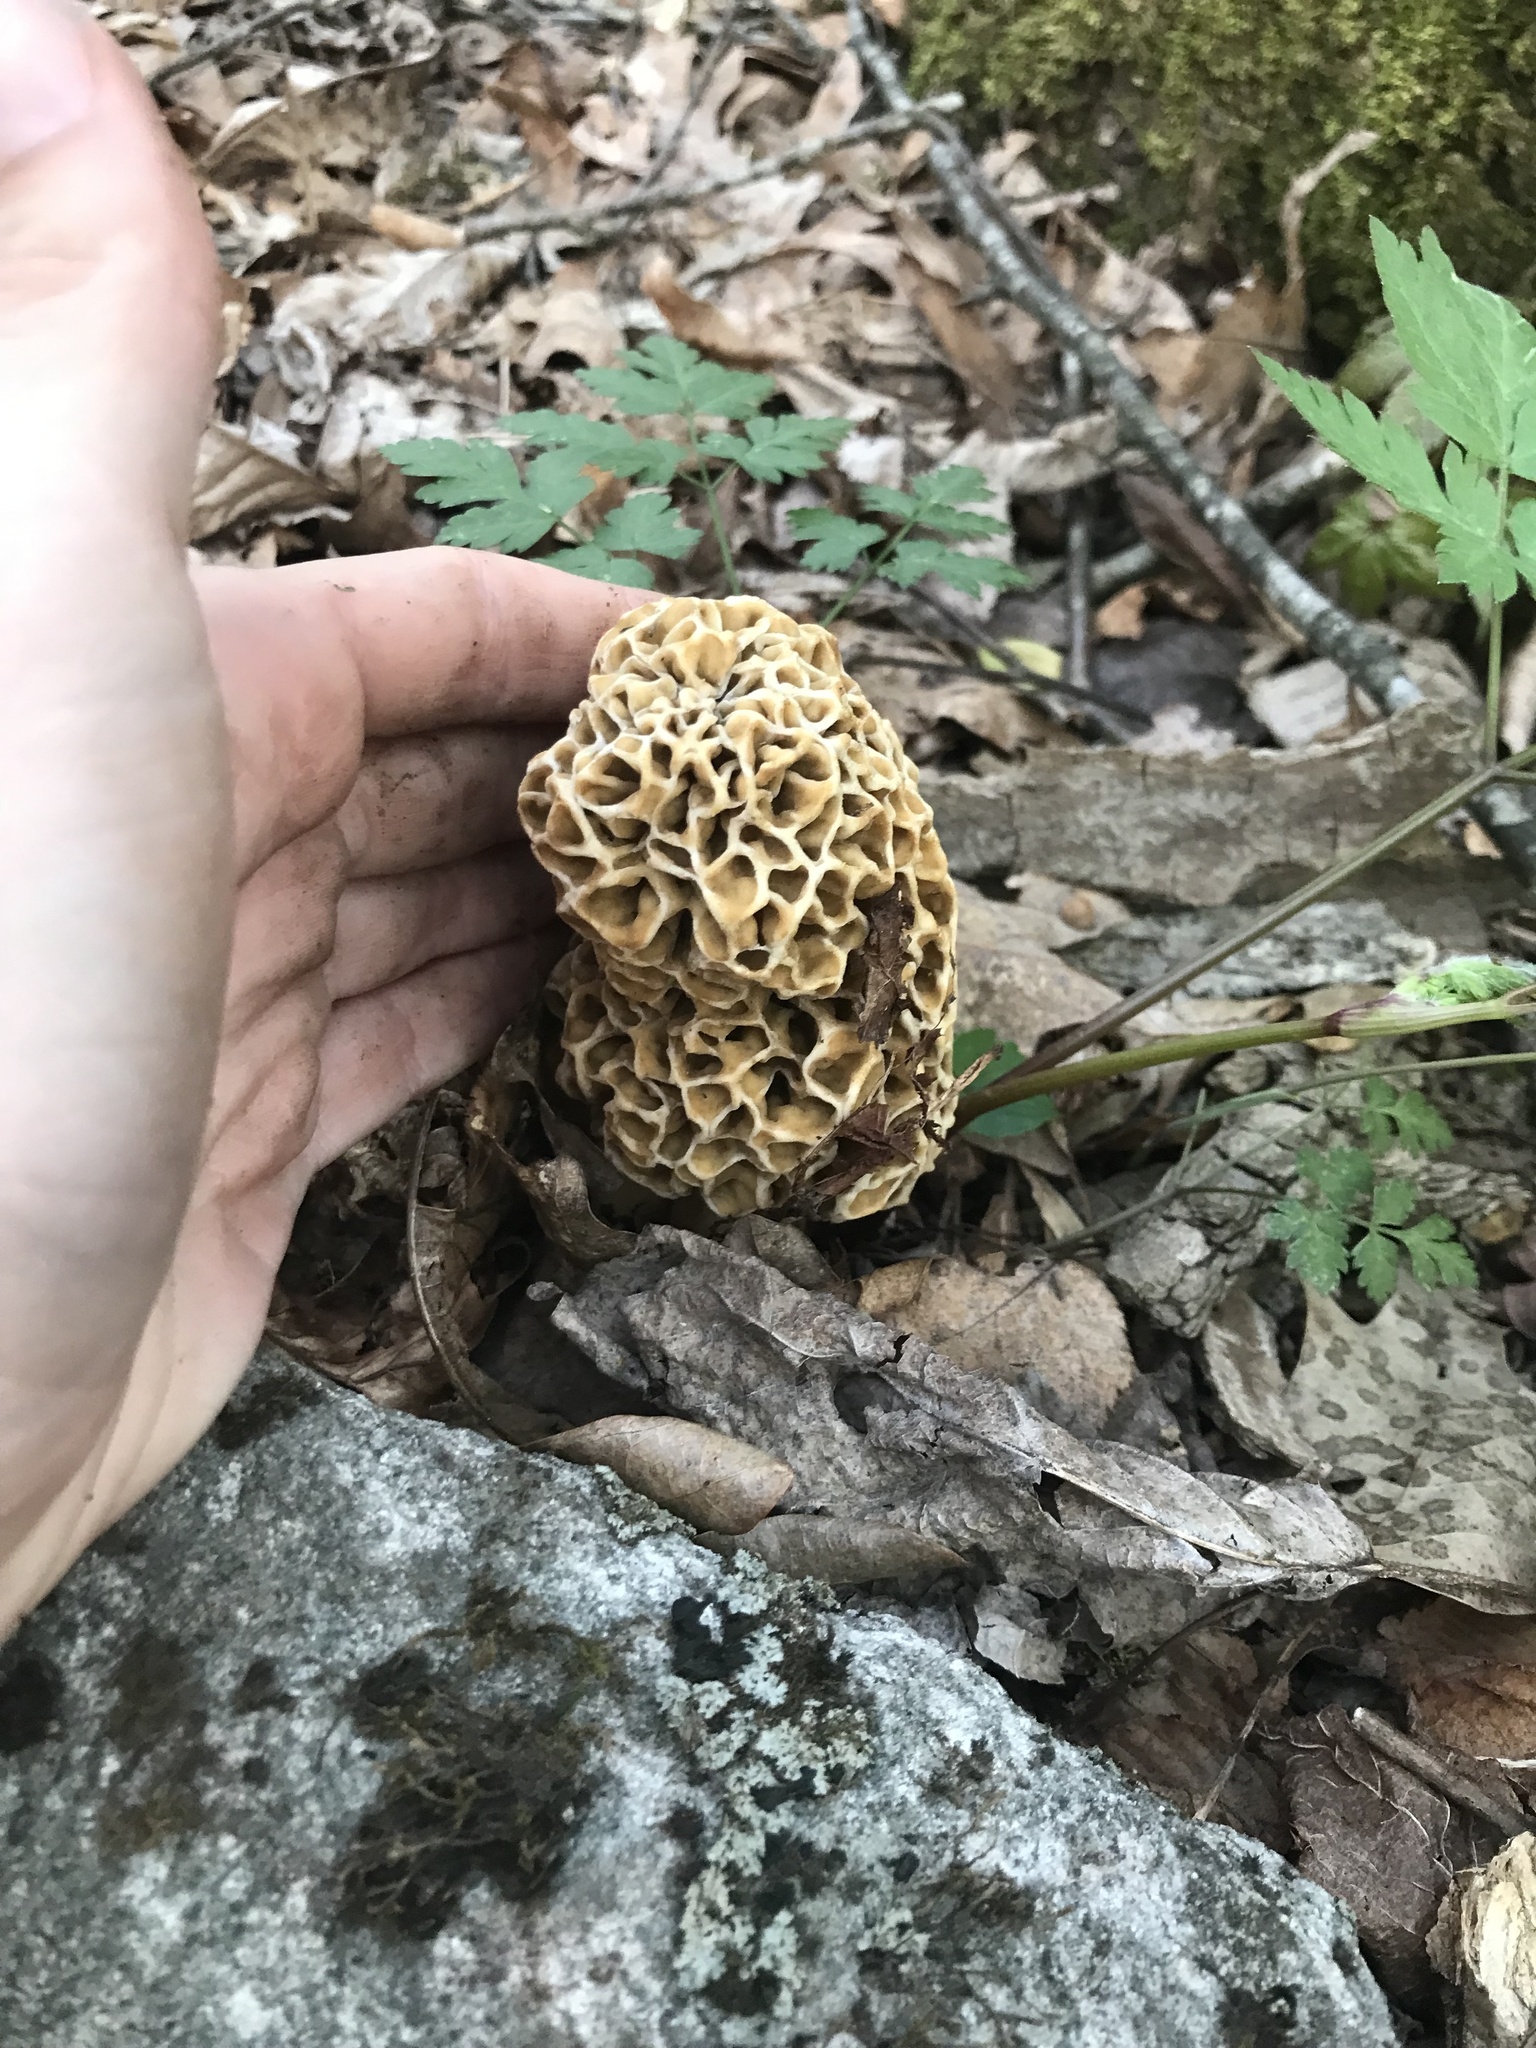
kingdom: Fungi
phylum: Ascomycota
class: Pezizomycetes
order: Pezizales
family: Morchellaceae
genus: Morchella
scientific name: Morchella americana
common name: White morel
